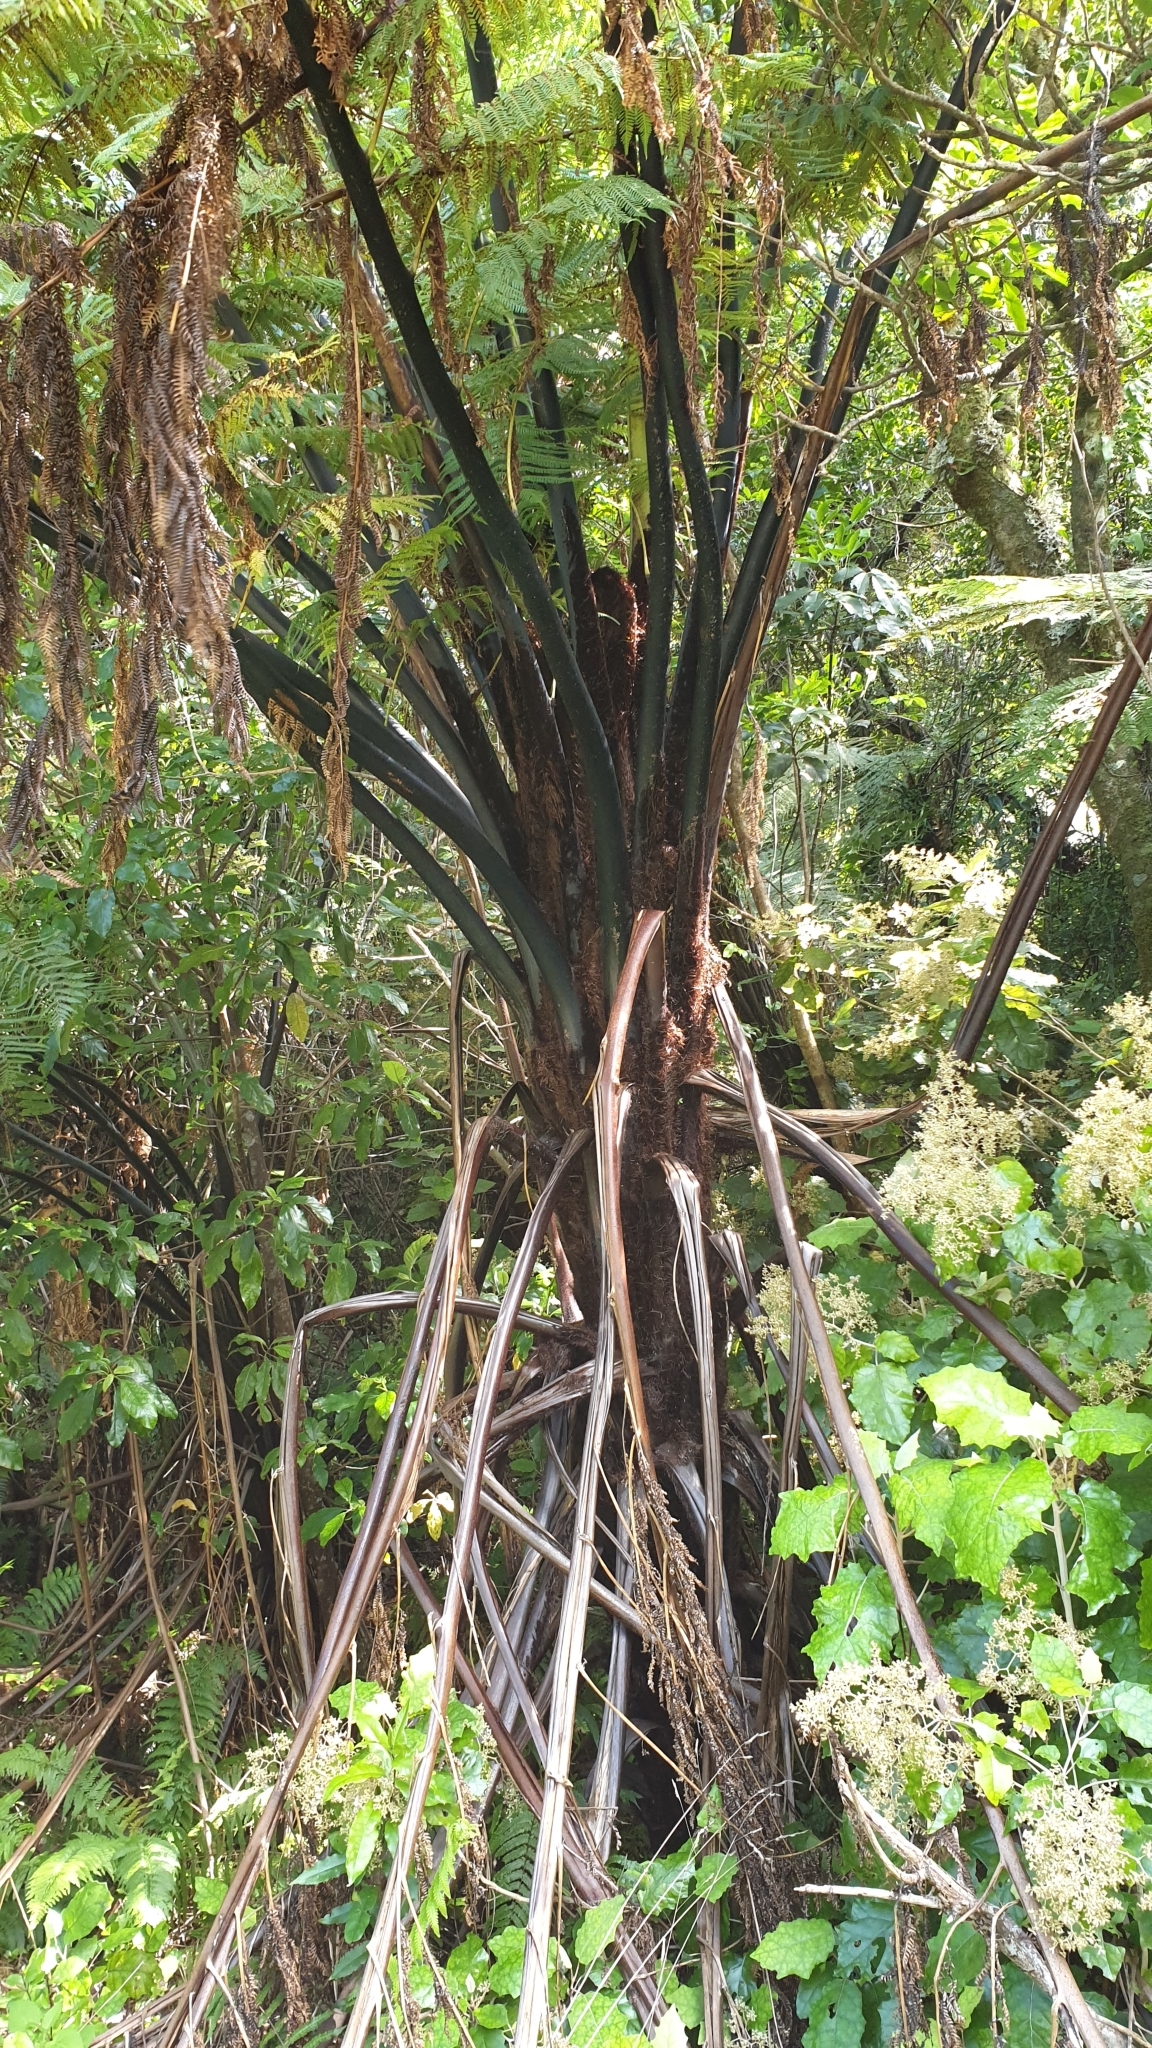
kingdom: Plantae
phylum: Tracheophyta
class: Polypodiopsida
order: Cyatheales
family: Cyatheaceae
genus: Sphaeropteris
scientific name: Sphaeropteris medullaris
